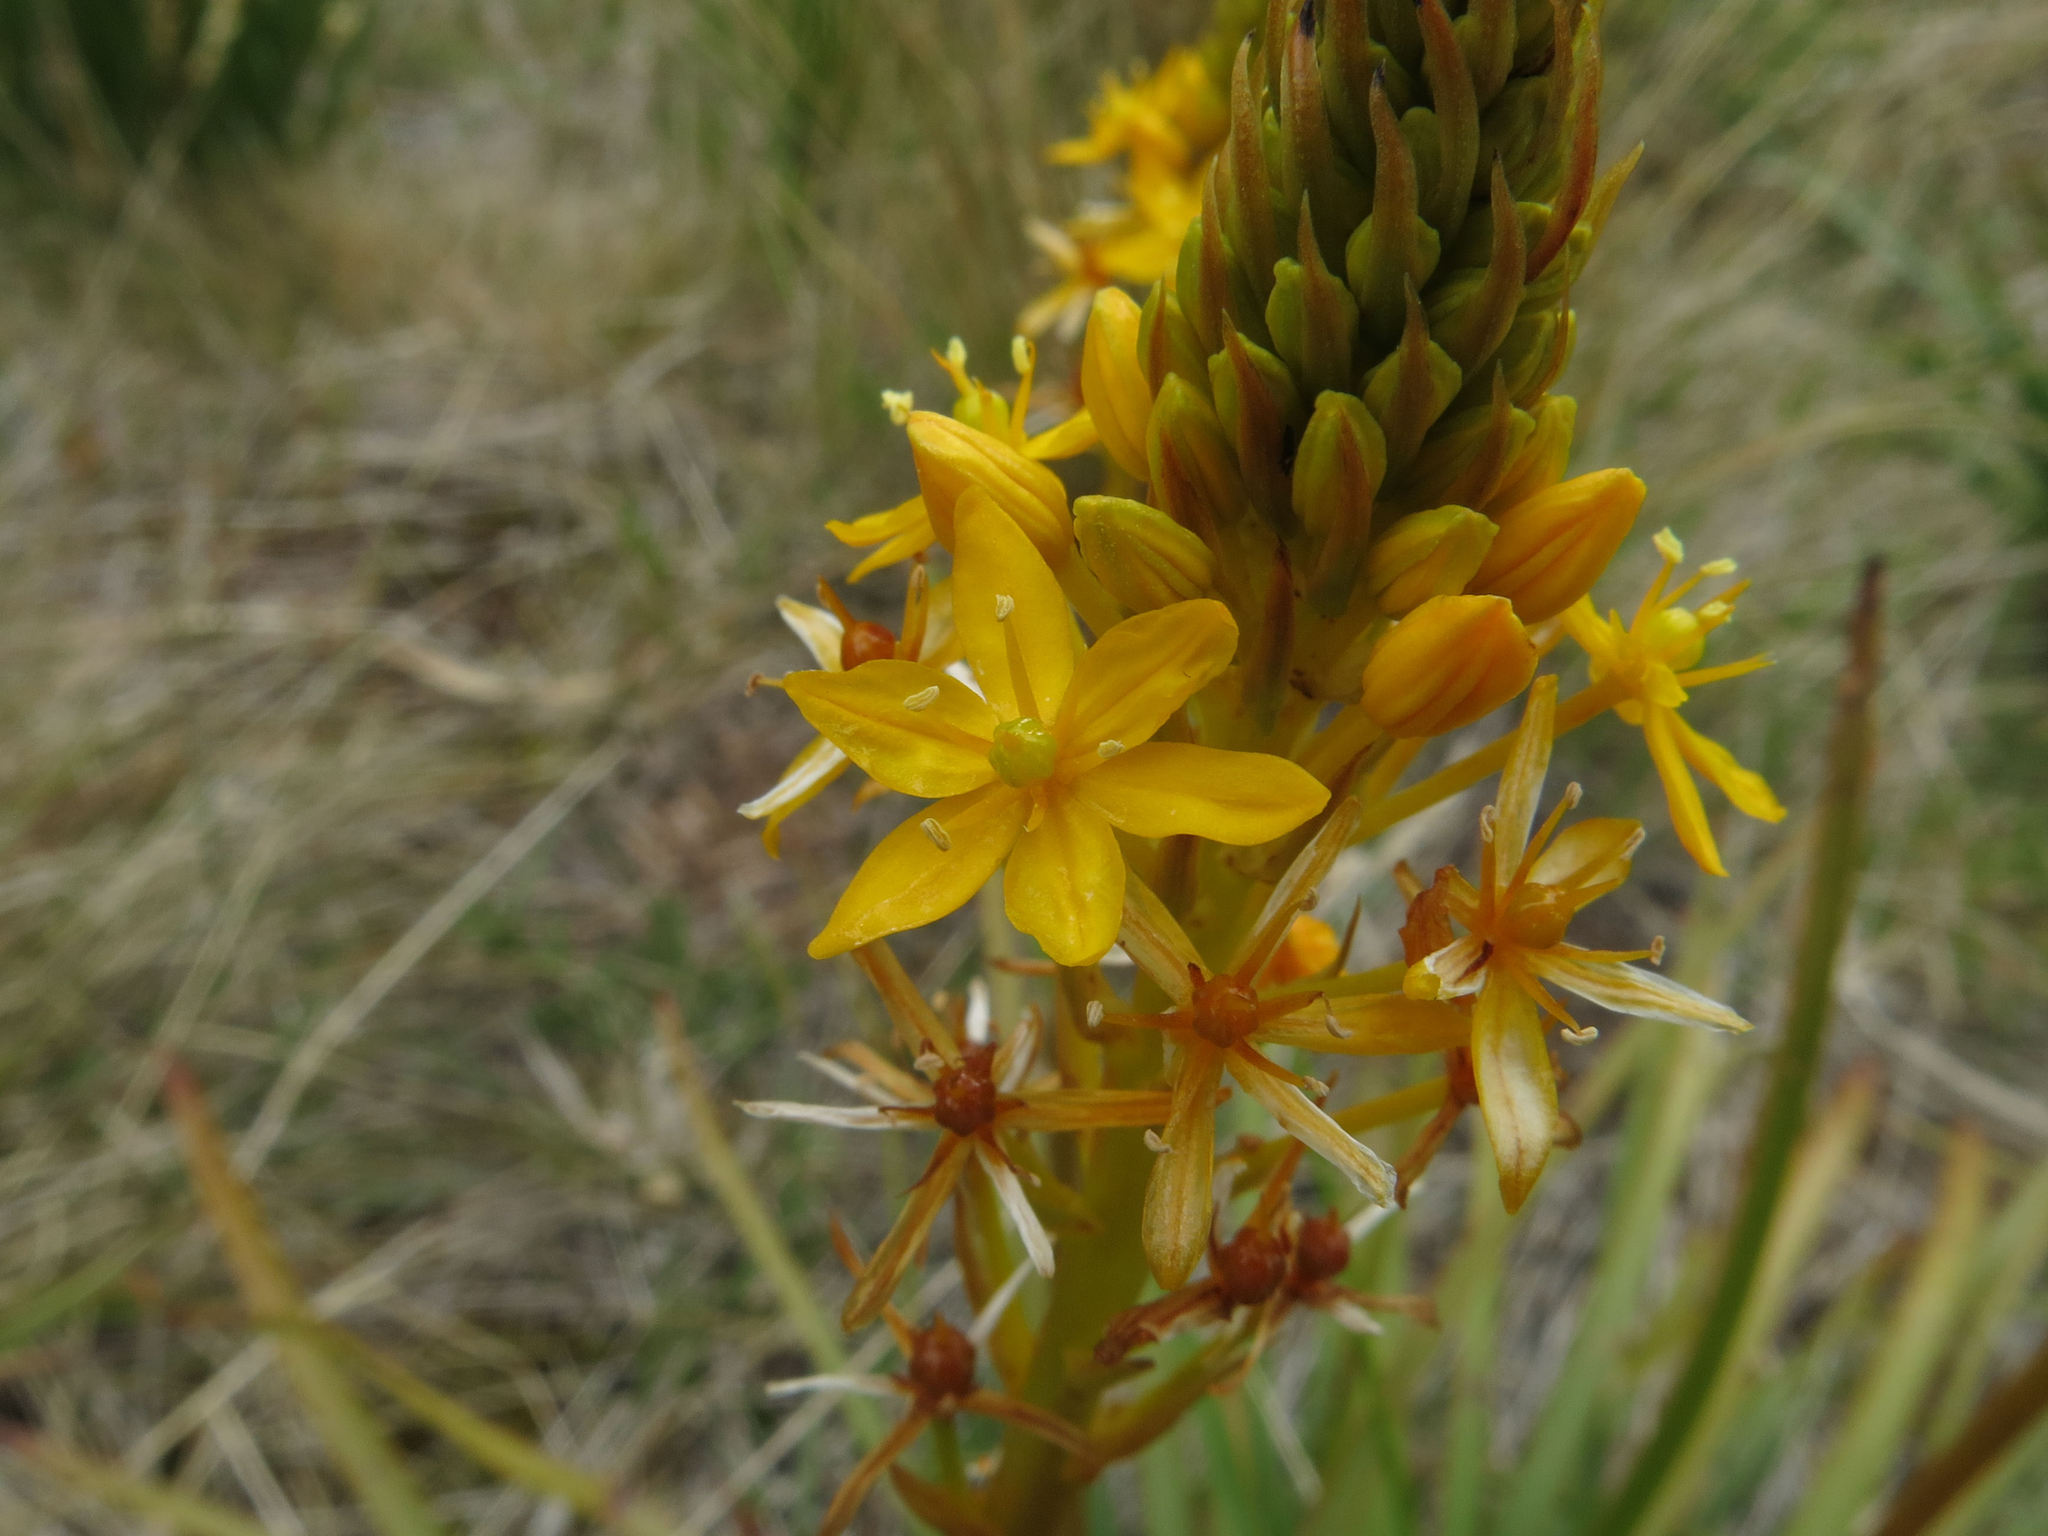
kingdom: Plantae
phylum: Tracheophyta
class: Liliopsida
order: Asparagales
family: Asphodelaceae
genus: Bulbinella
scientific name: Bulbinella hookeri
